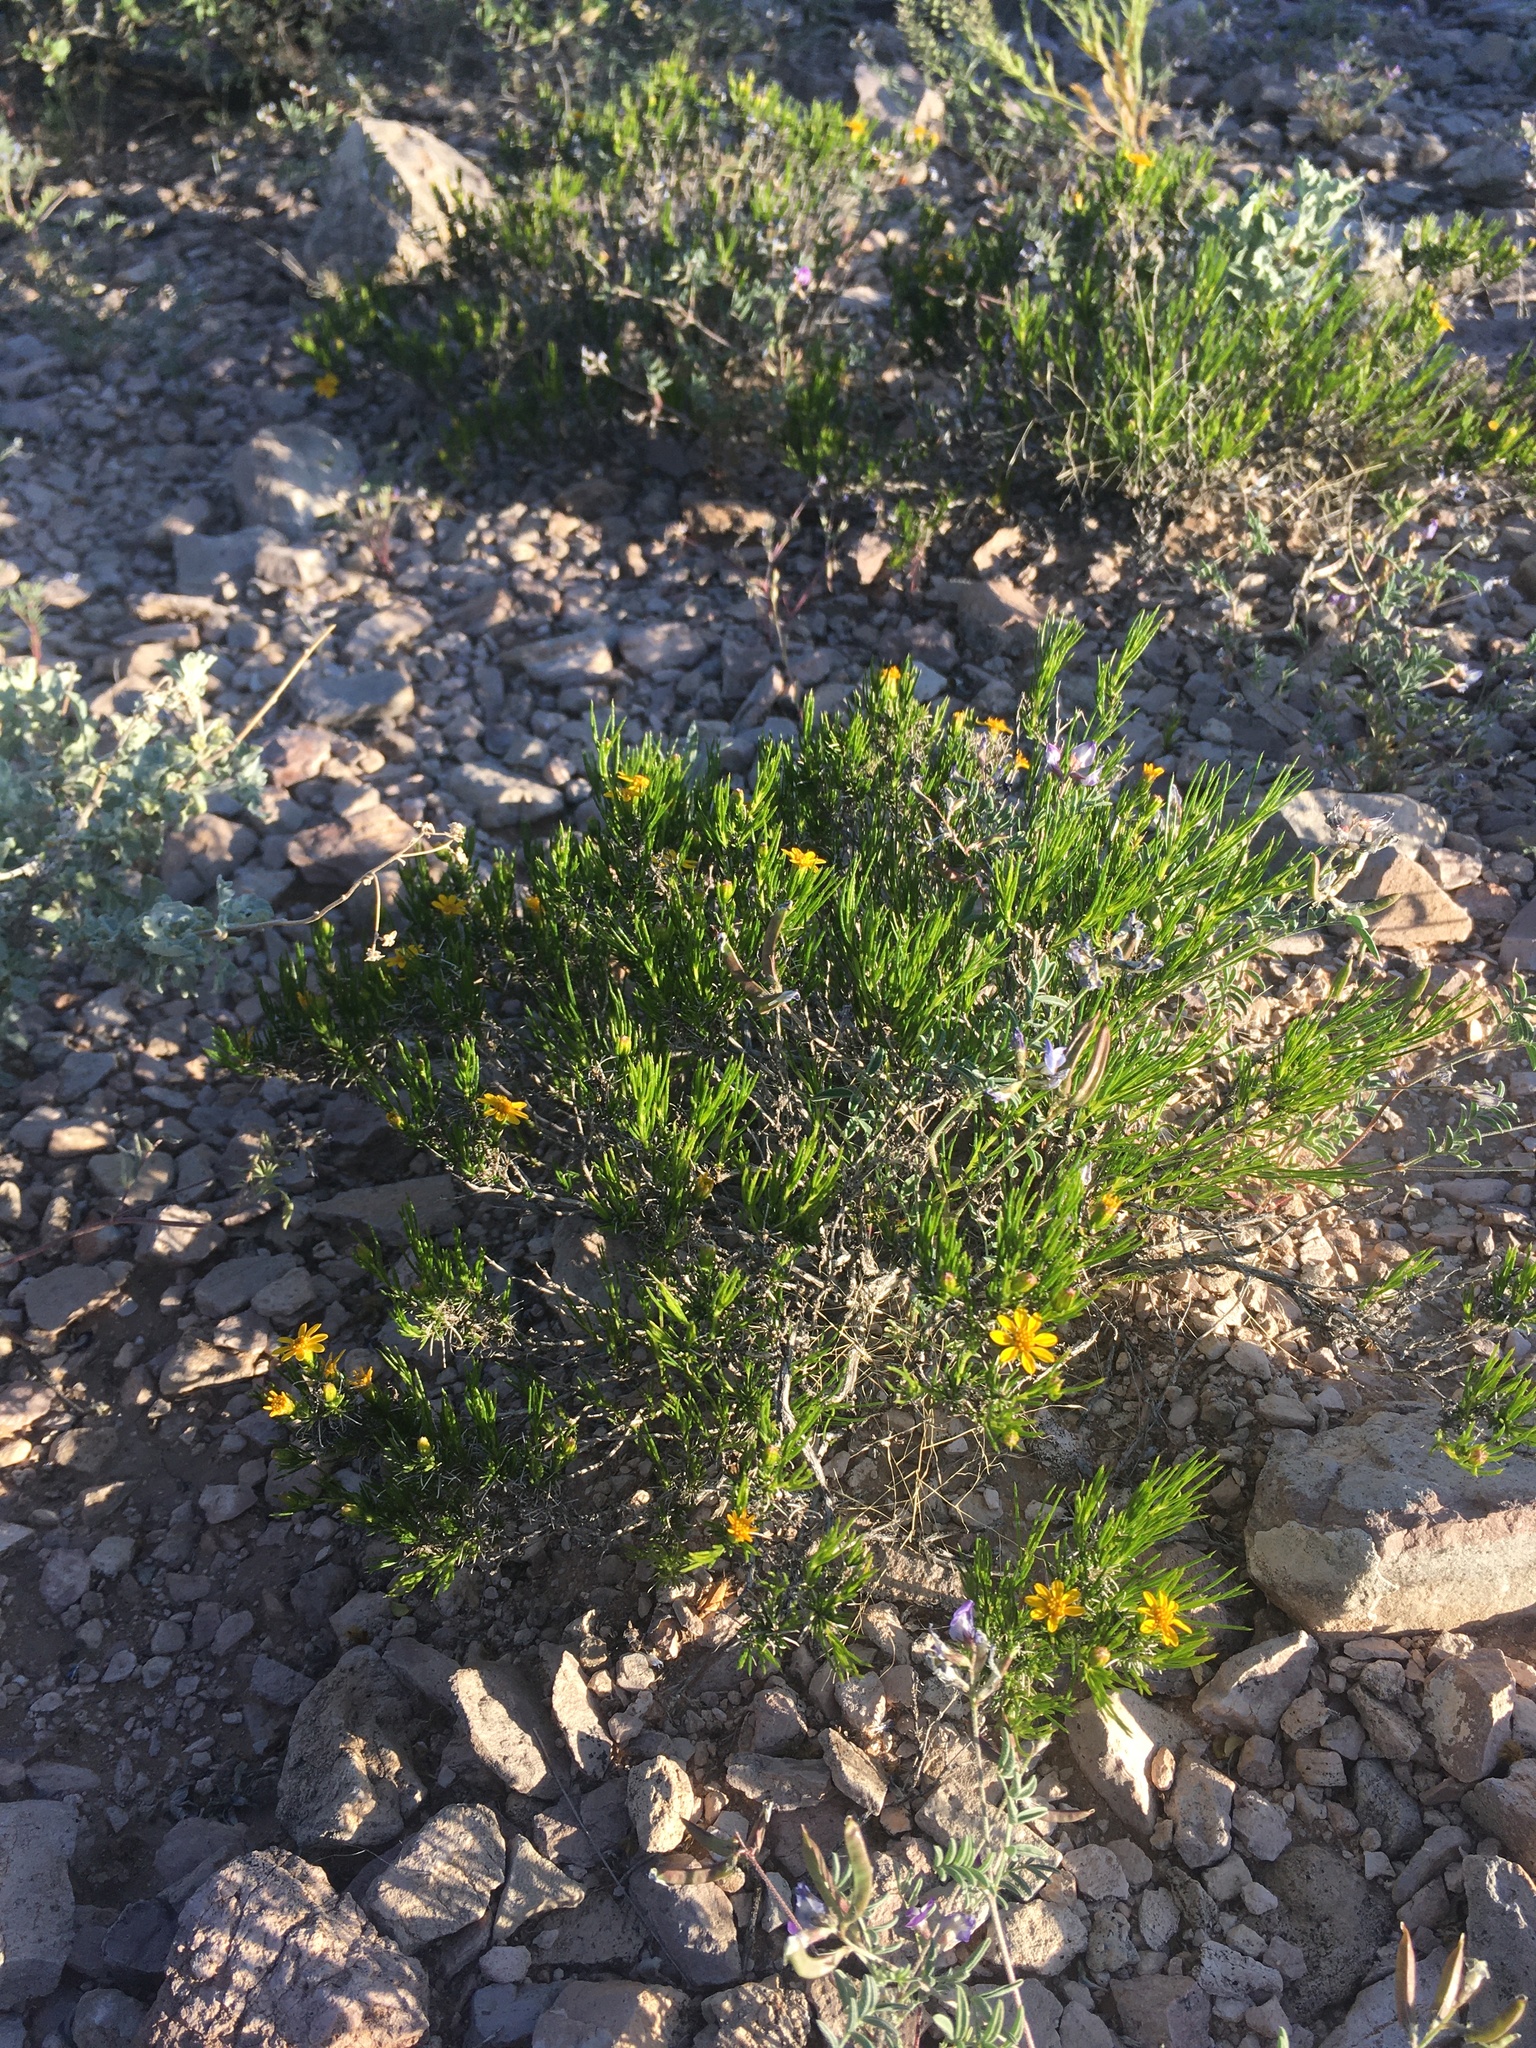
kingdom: Plantae
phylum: Tracheophyta
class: Magnoliopsida
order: Asterales
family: Asteraceae
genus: Thymophylla
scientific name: Thymophylla acerosa
